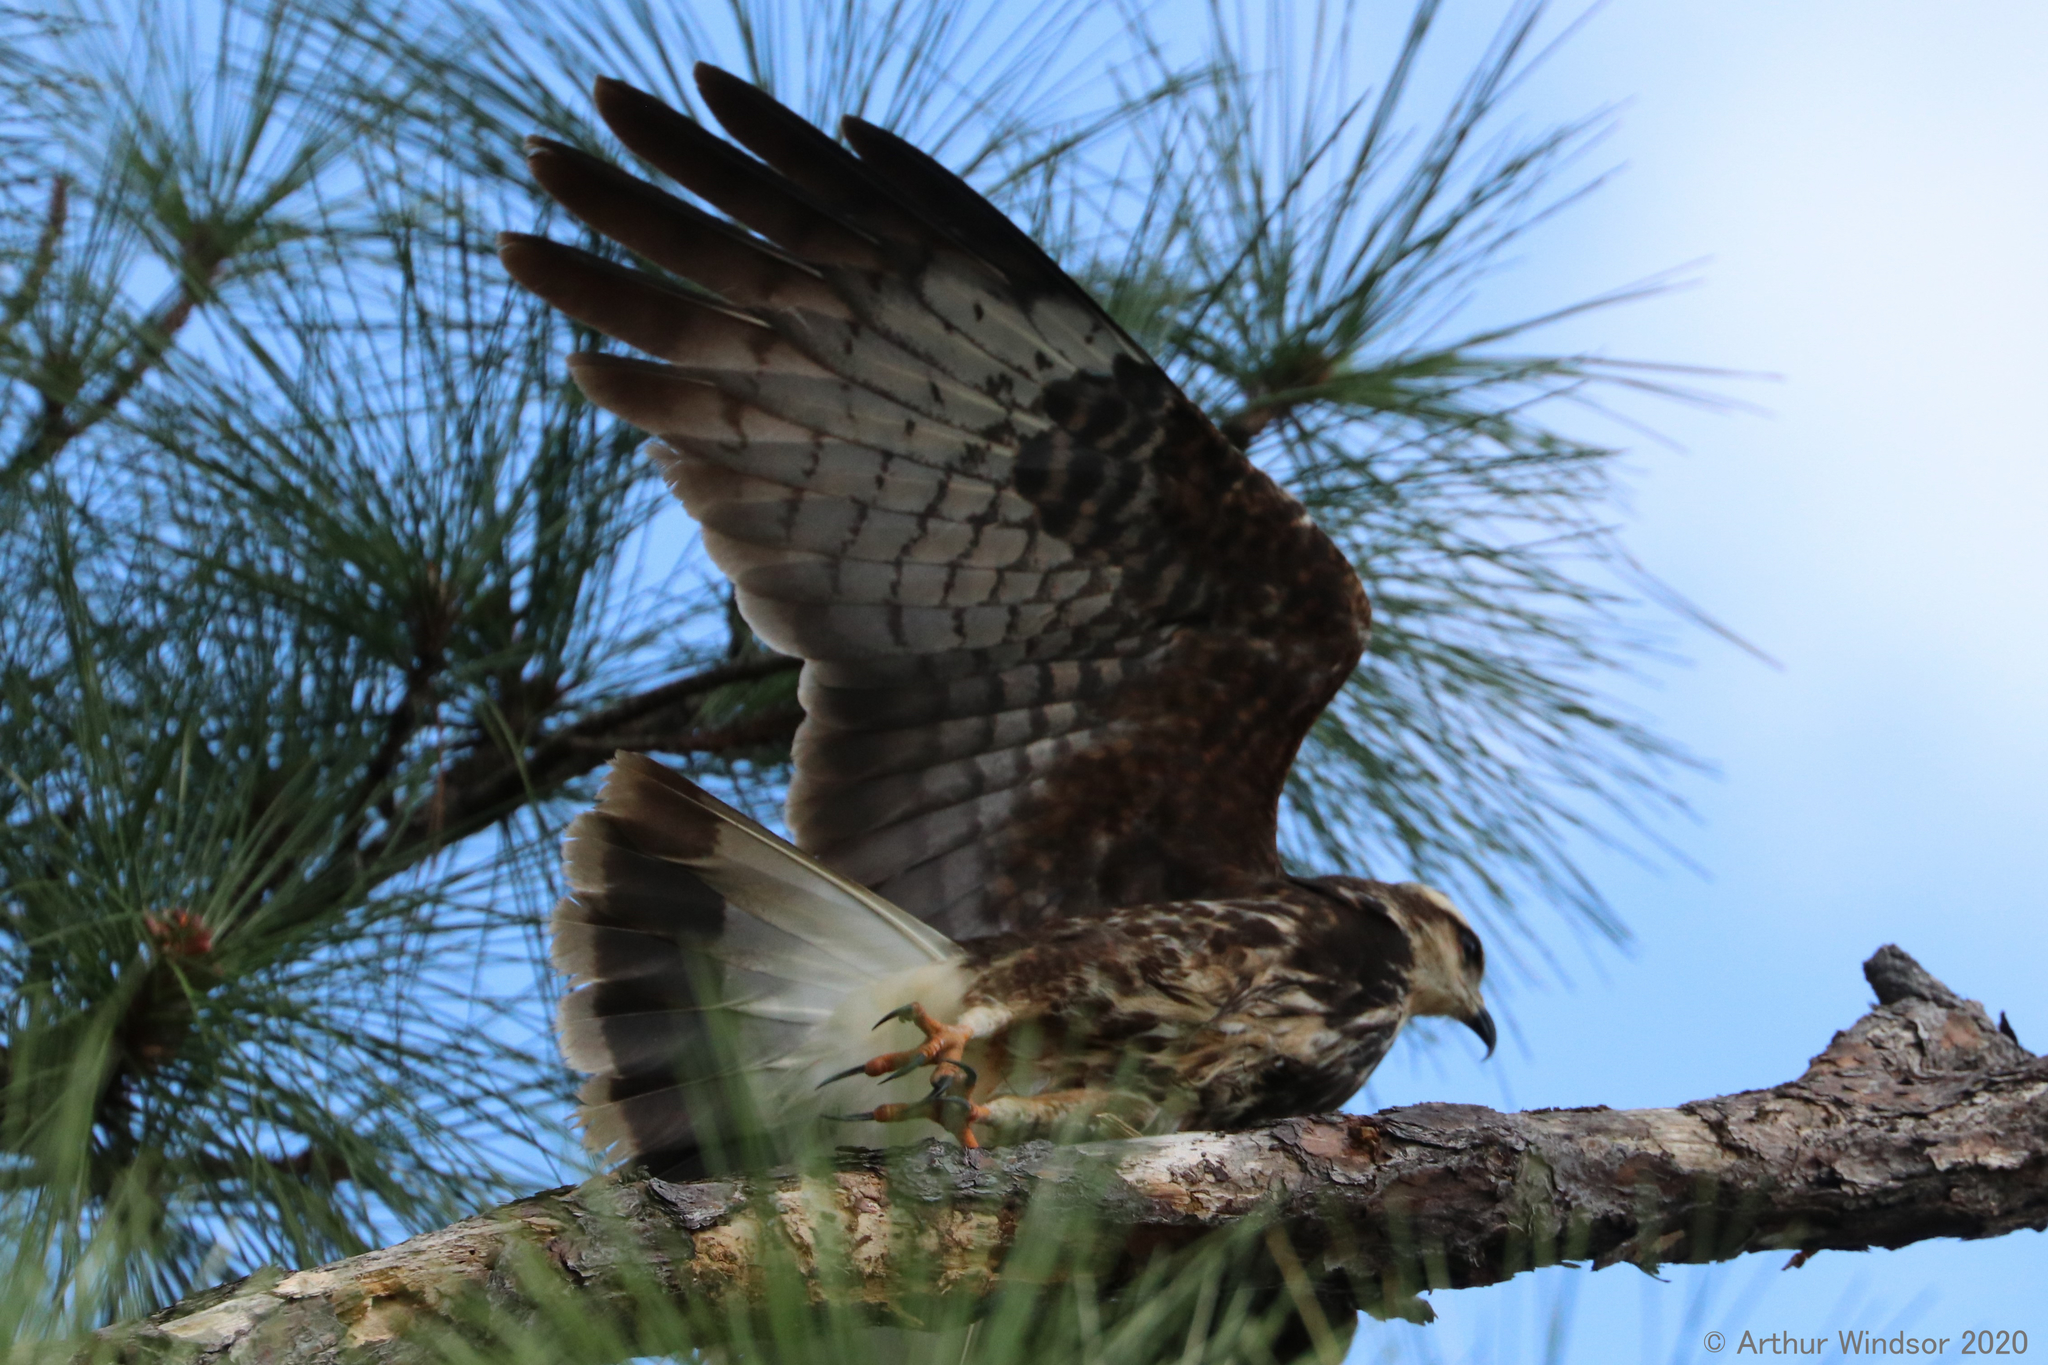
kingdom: Animalia
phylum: Chordata
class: Aves
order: Accipitriformes
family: Accipitridae
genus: Rostrhamus
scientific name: Rostrhamus sociabilis
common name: Snail kite
